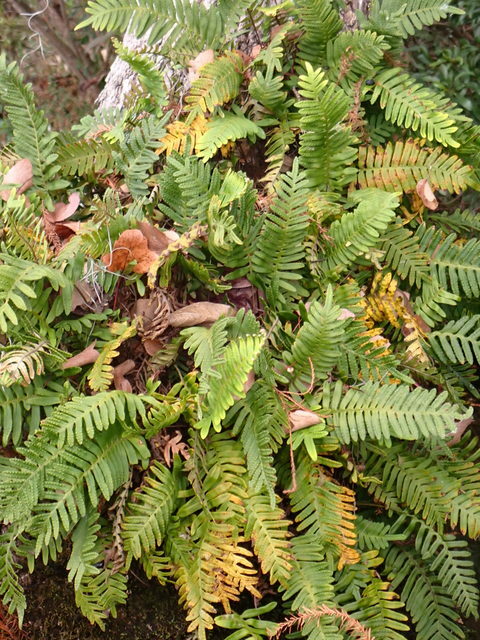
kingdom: Plantae
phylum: Tracheophyta
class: Polypodiopsida
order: Polypodiales
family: Polypodiaceae
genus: Pleopeltis
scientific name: Pleopeltis michauxiana
